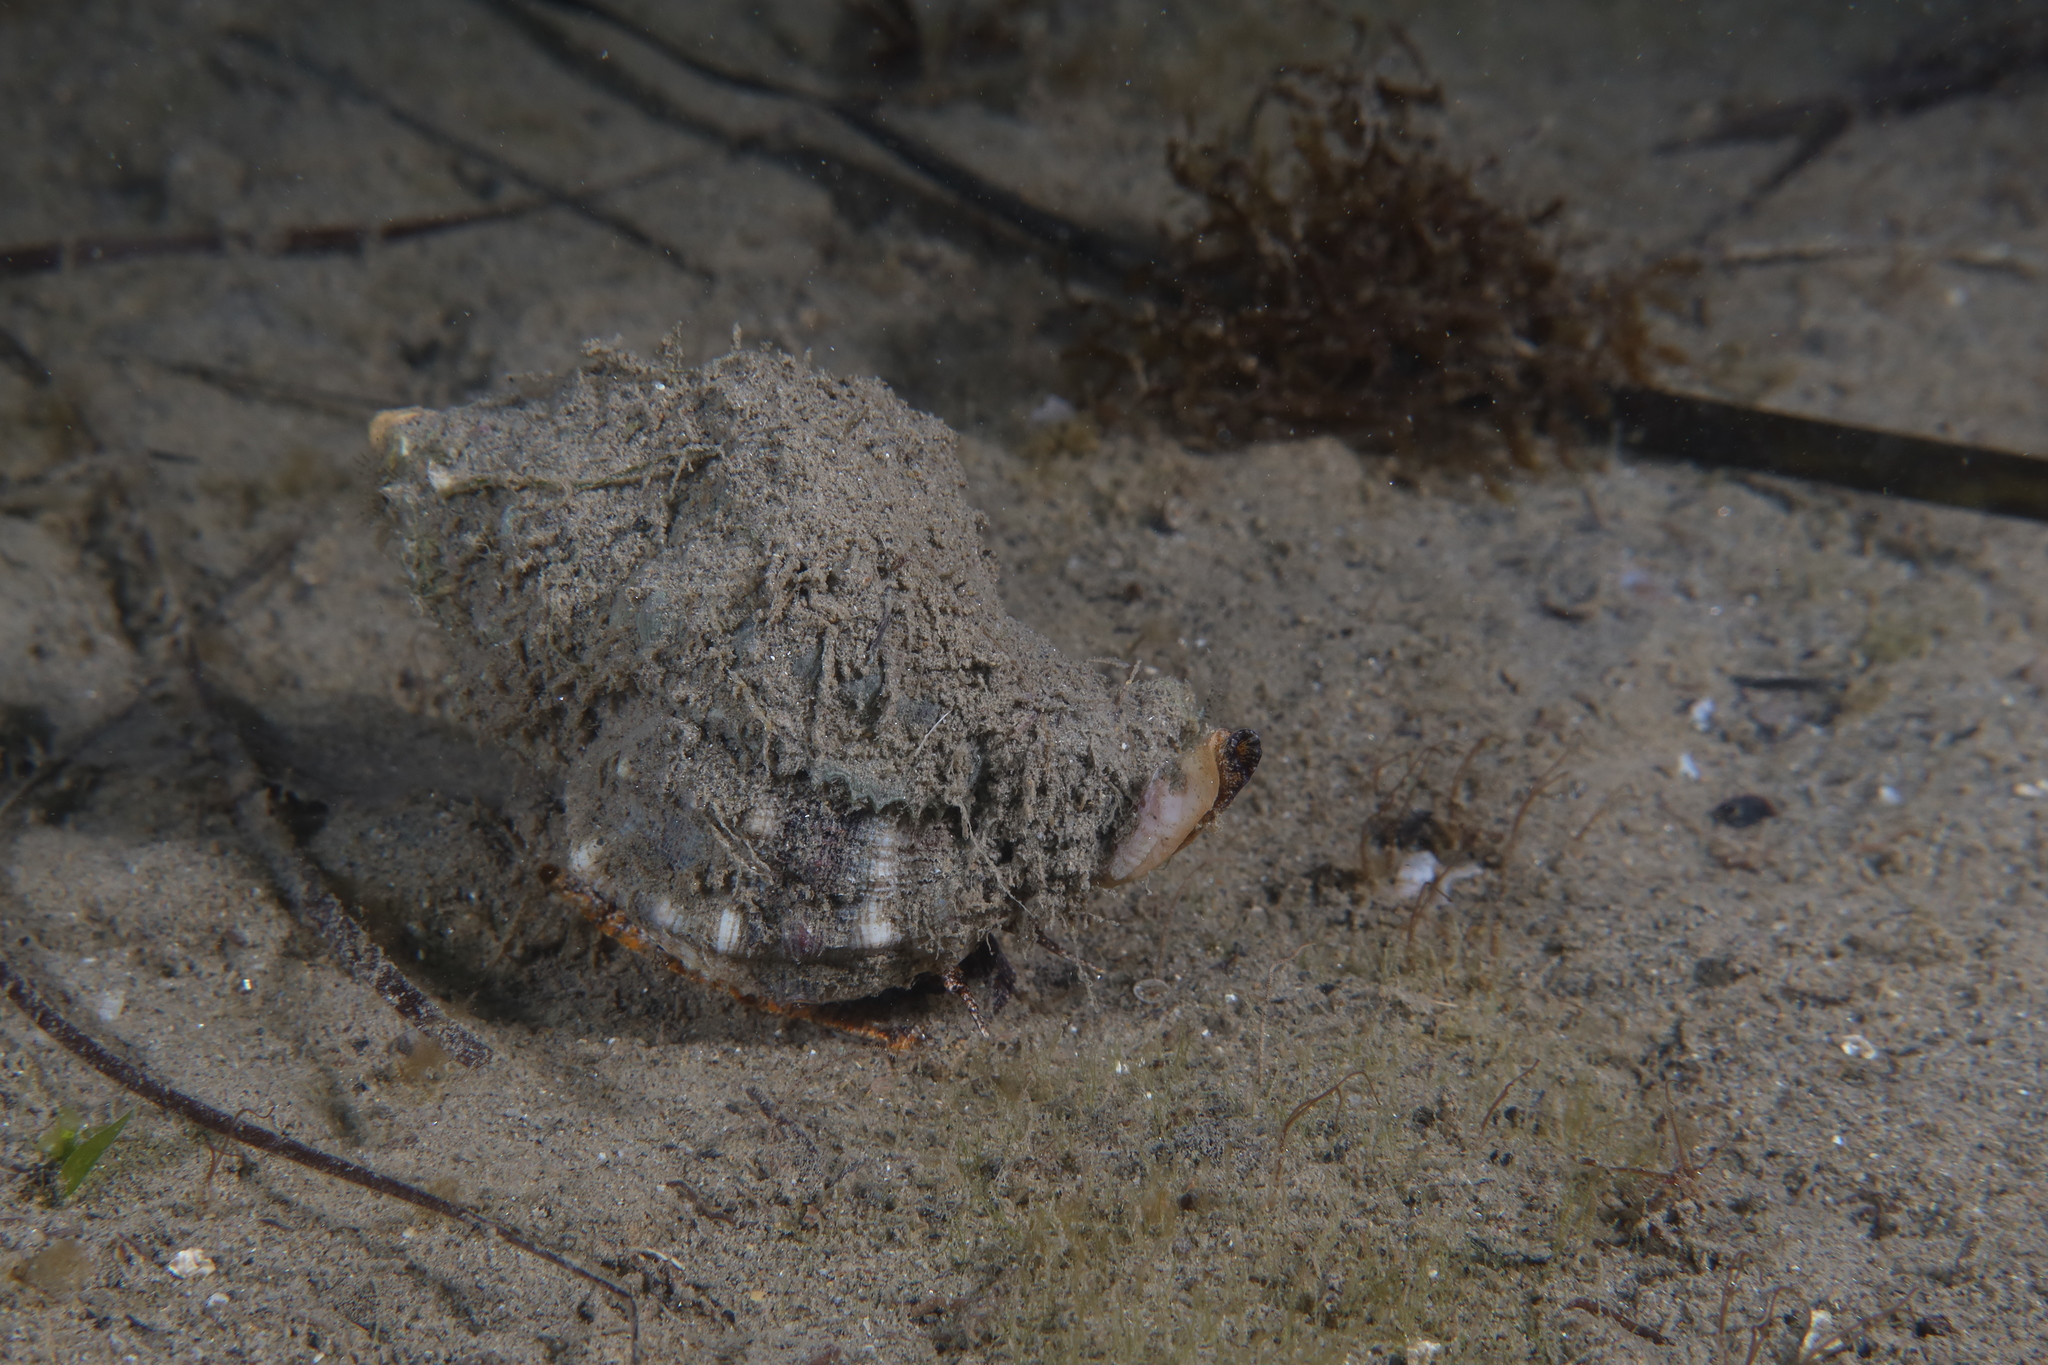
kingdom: Animalia
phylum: Mollusca
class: Gastropoda
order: Neogastropoda
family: Muricidae
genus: Hexaplex
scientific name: Hexaplex trunculus
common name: Banded dye-murex
